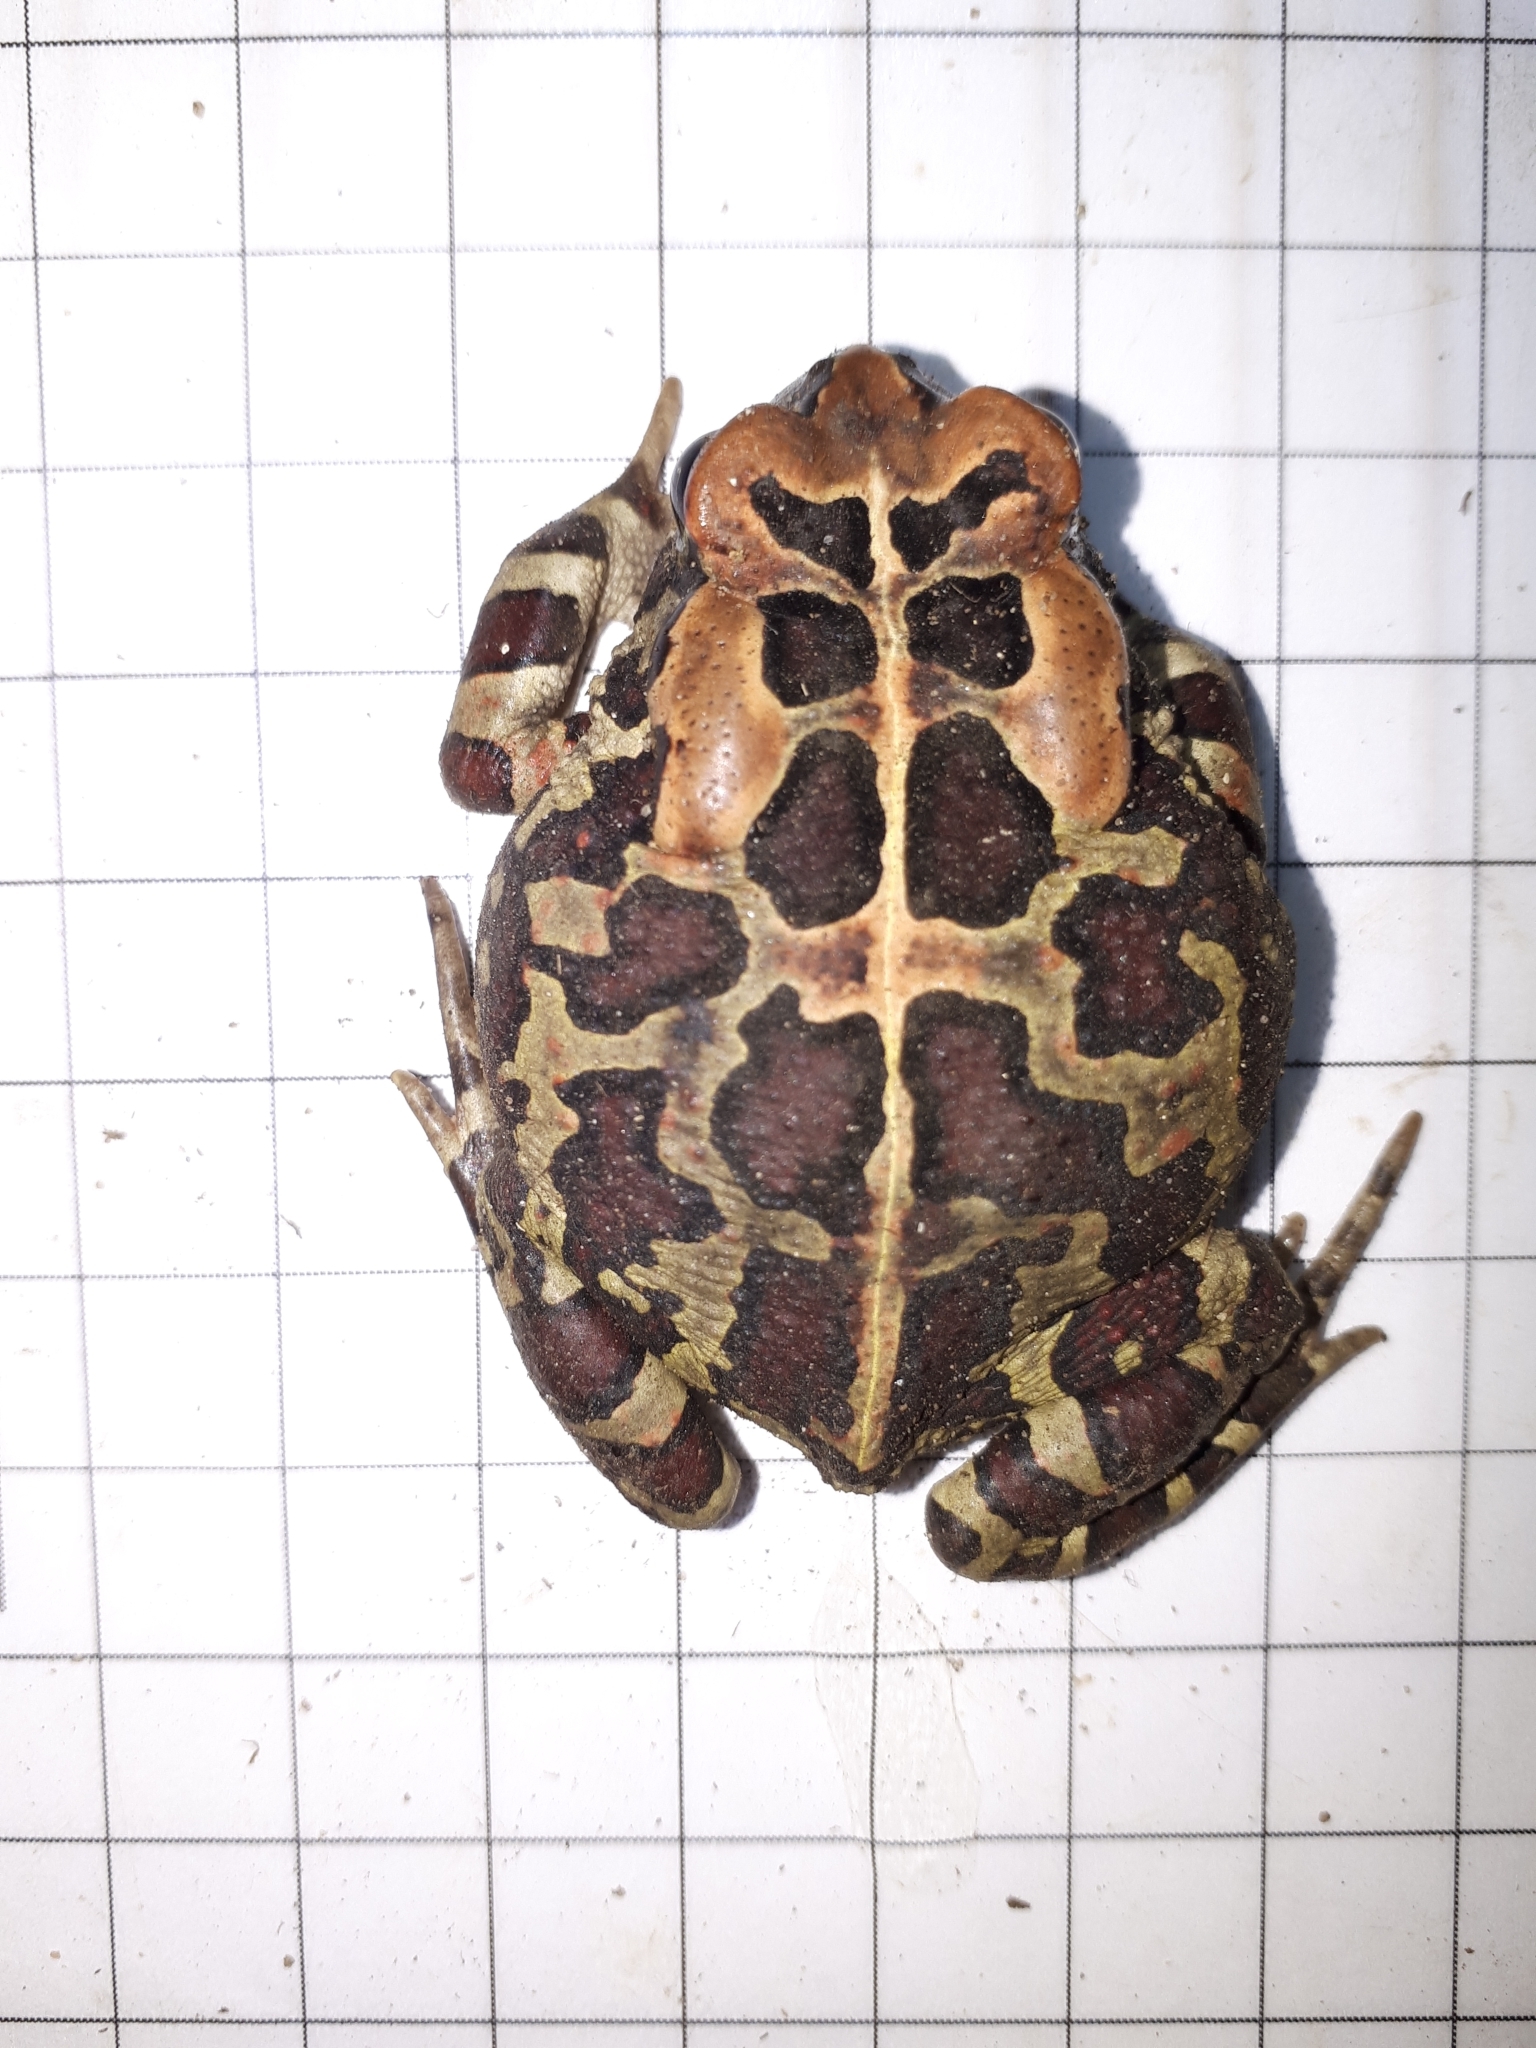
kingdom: Animalia
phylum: Chordata
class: Amphibia
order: Anura
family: Bufonidae
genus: Sclerophrys
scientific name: Sclerophrys pantherina
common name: Panther toad
